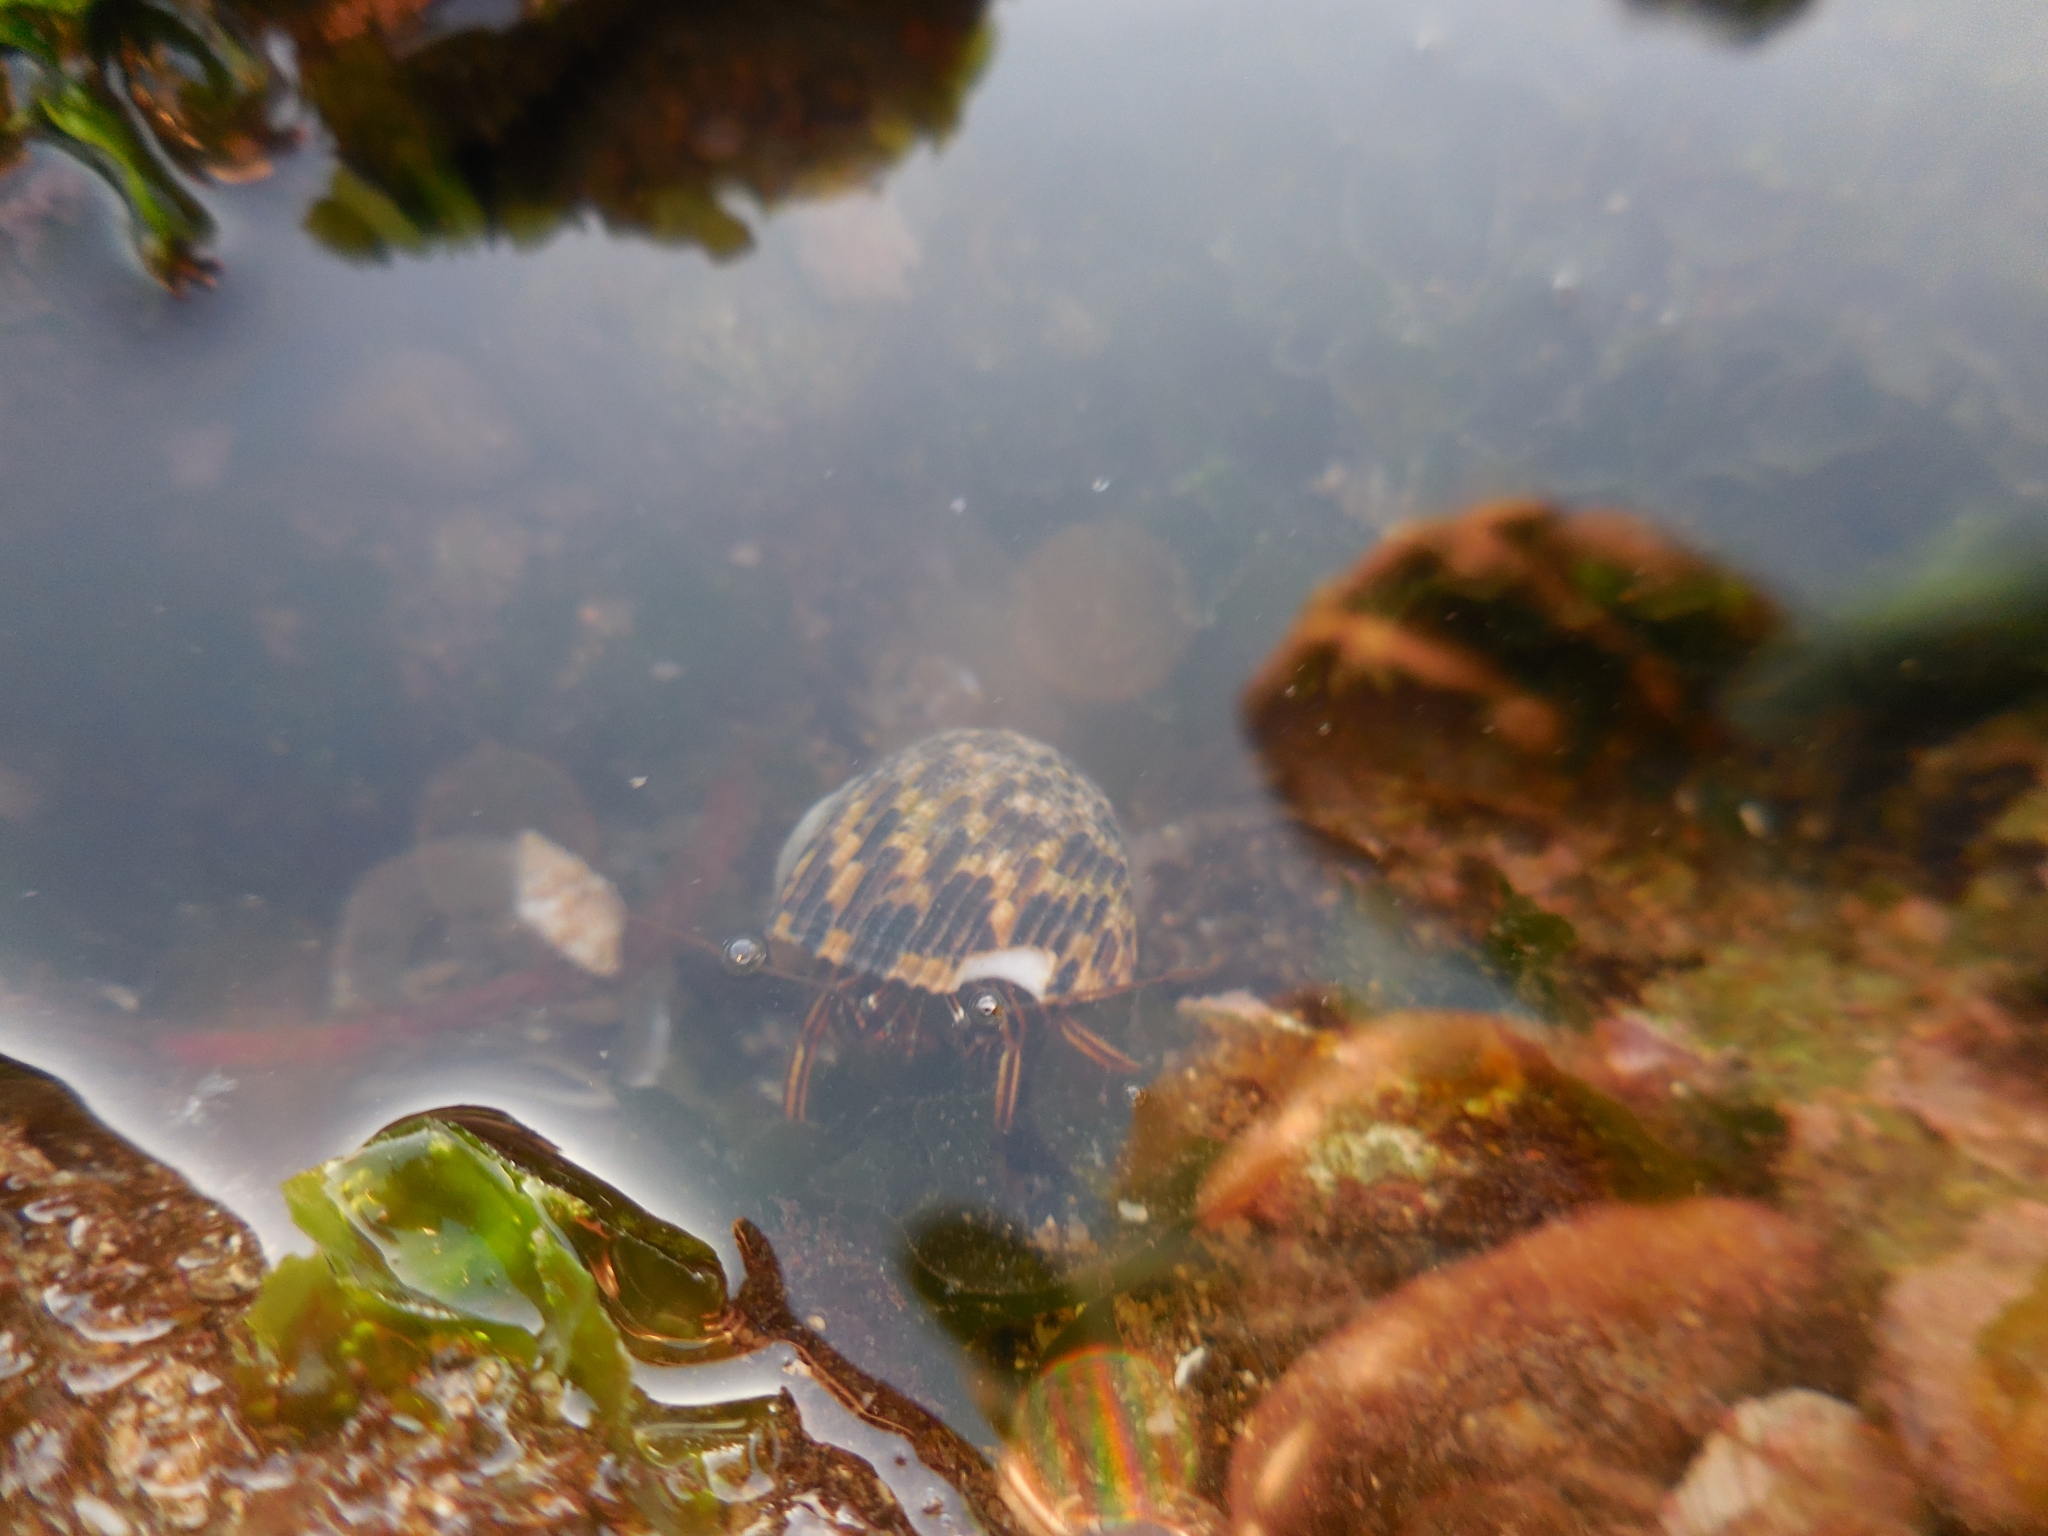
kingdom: Animalia
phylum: Arthropoda
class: Malacostraca
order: Decapoda
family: Diogenidae
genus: Clibanarius
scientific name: Clibanarius rhabdodactylus
